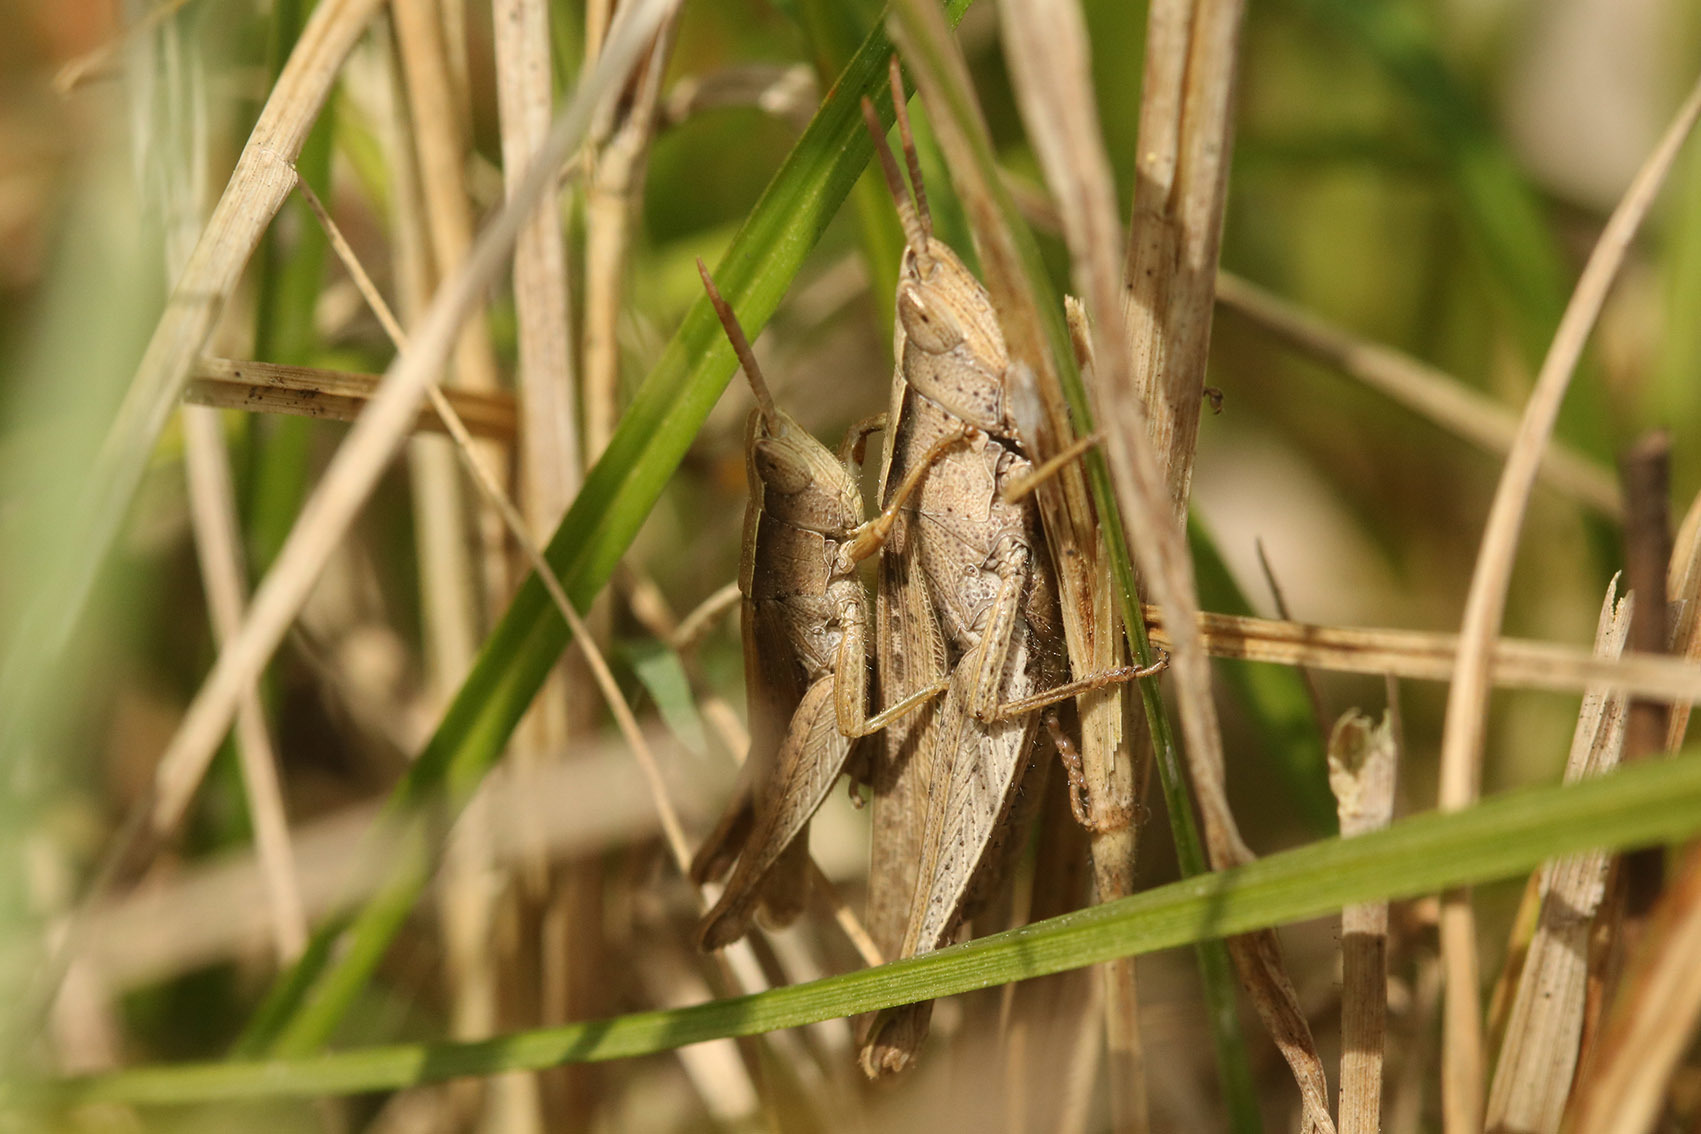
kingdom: Animalia
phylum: Arthropoda
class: Insecta
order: Orthoptera
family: Acrididae
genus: Laplatacris
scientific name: Laplatacris dispar
